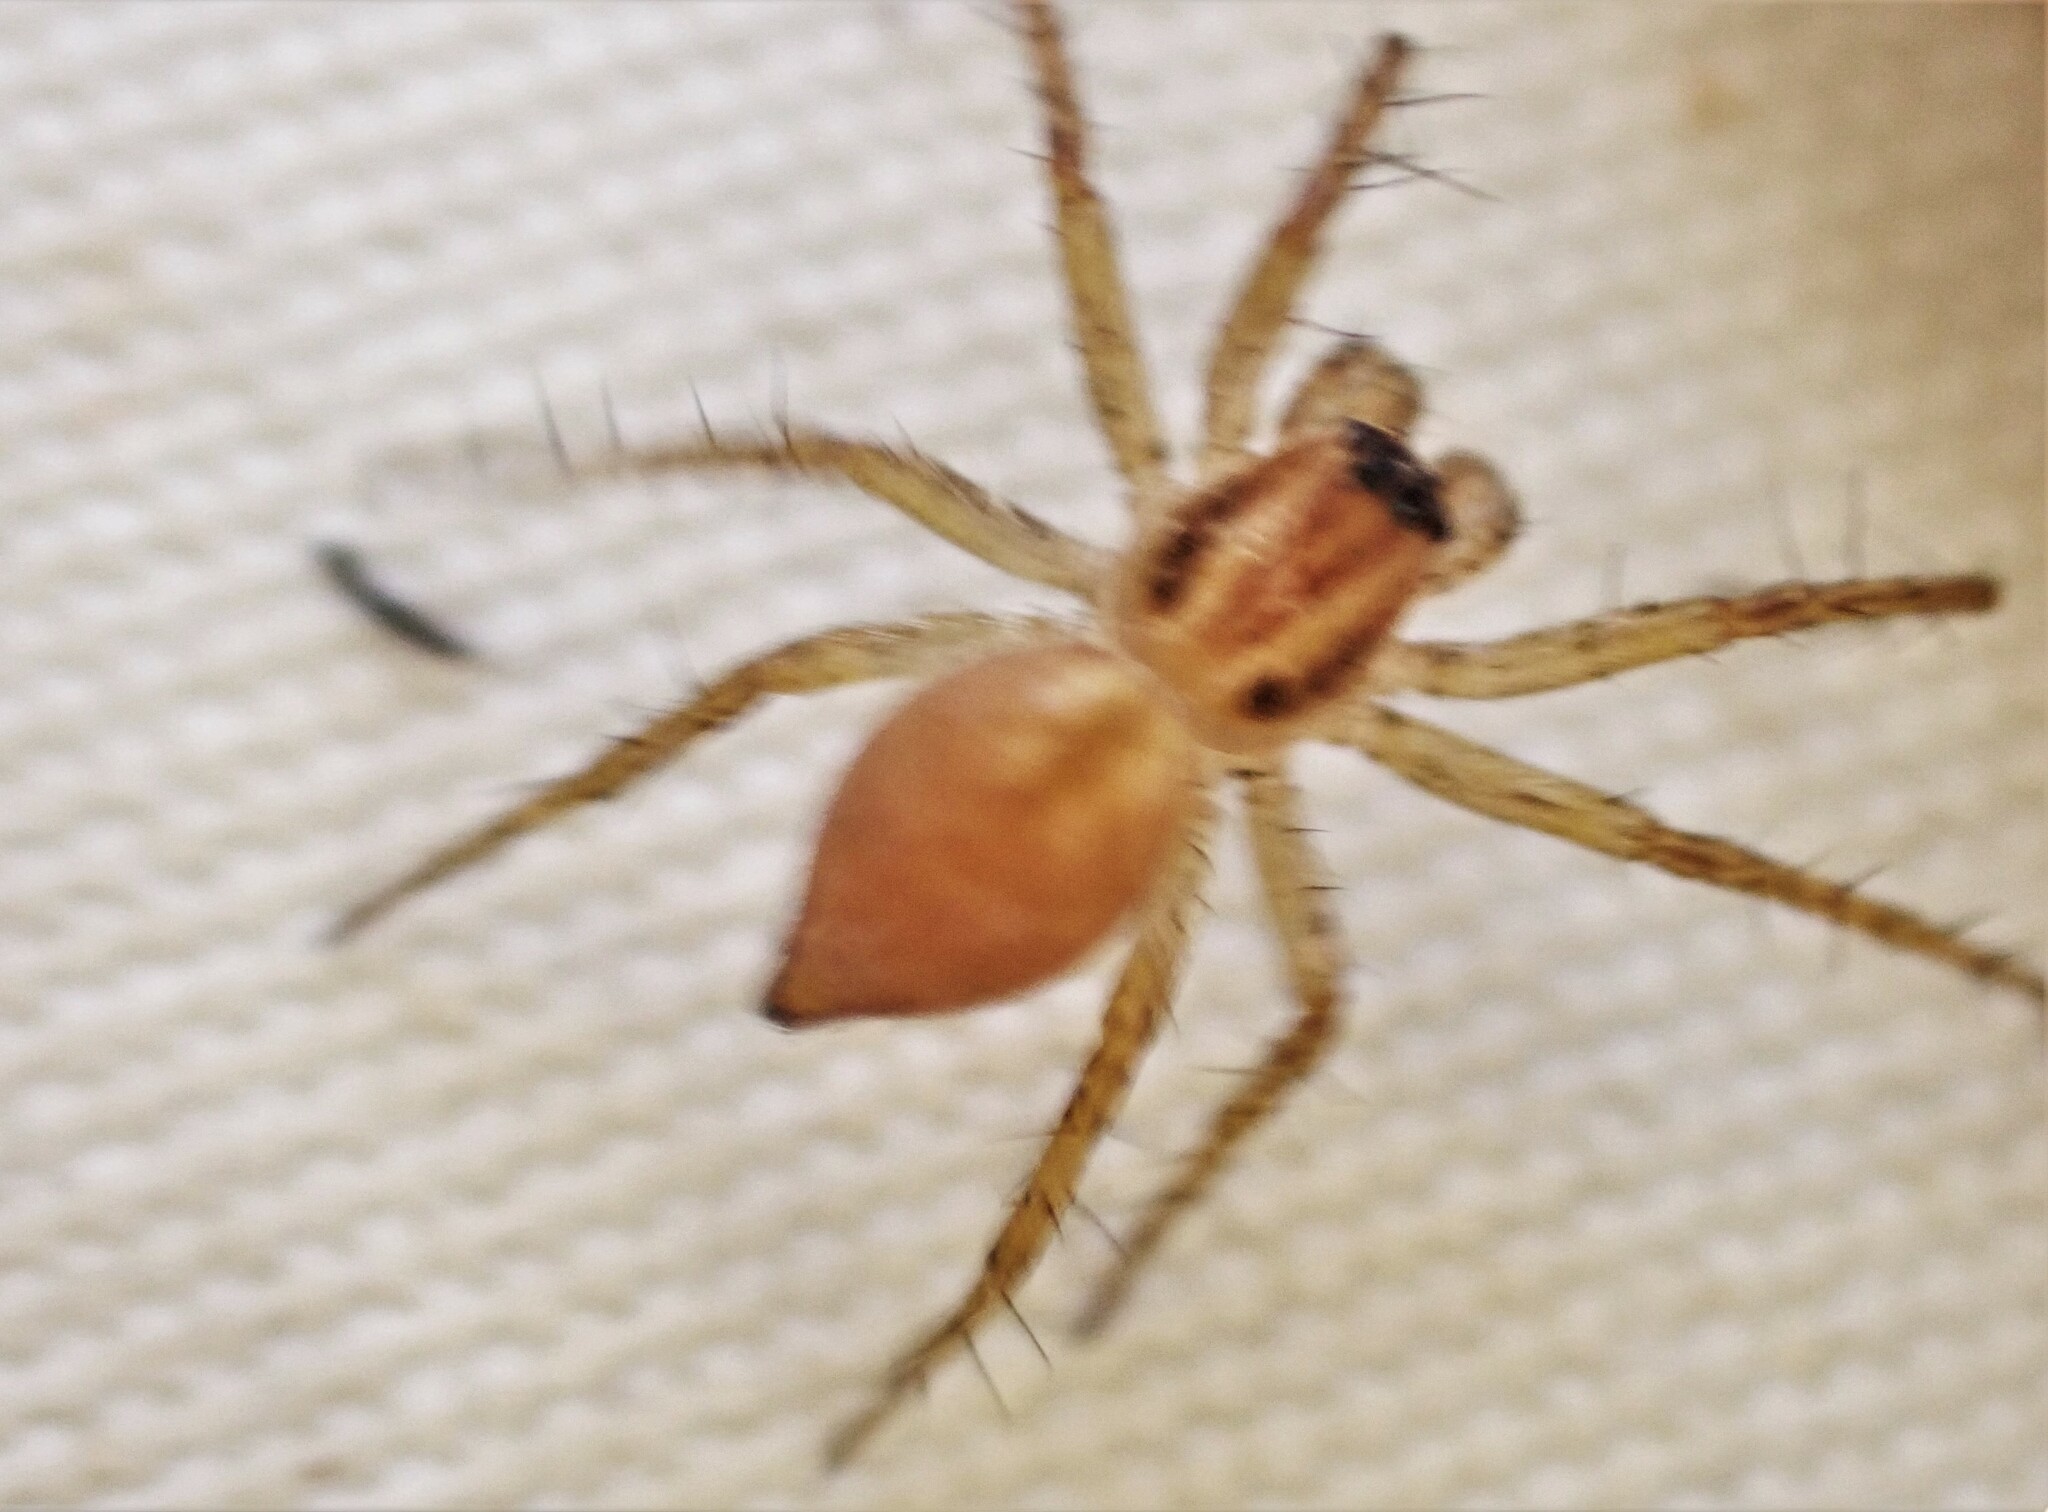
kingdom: Animalia
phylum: Arthropoda
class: Arachnida
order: Araneae
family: Oxyopidae
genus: Oxyopes
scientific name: Oxyopes gracilipes
